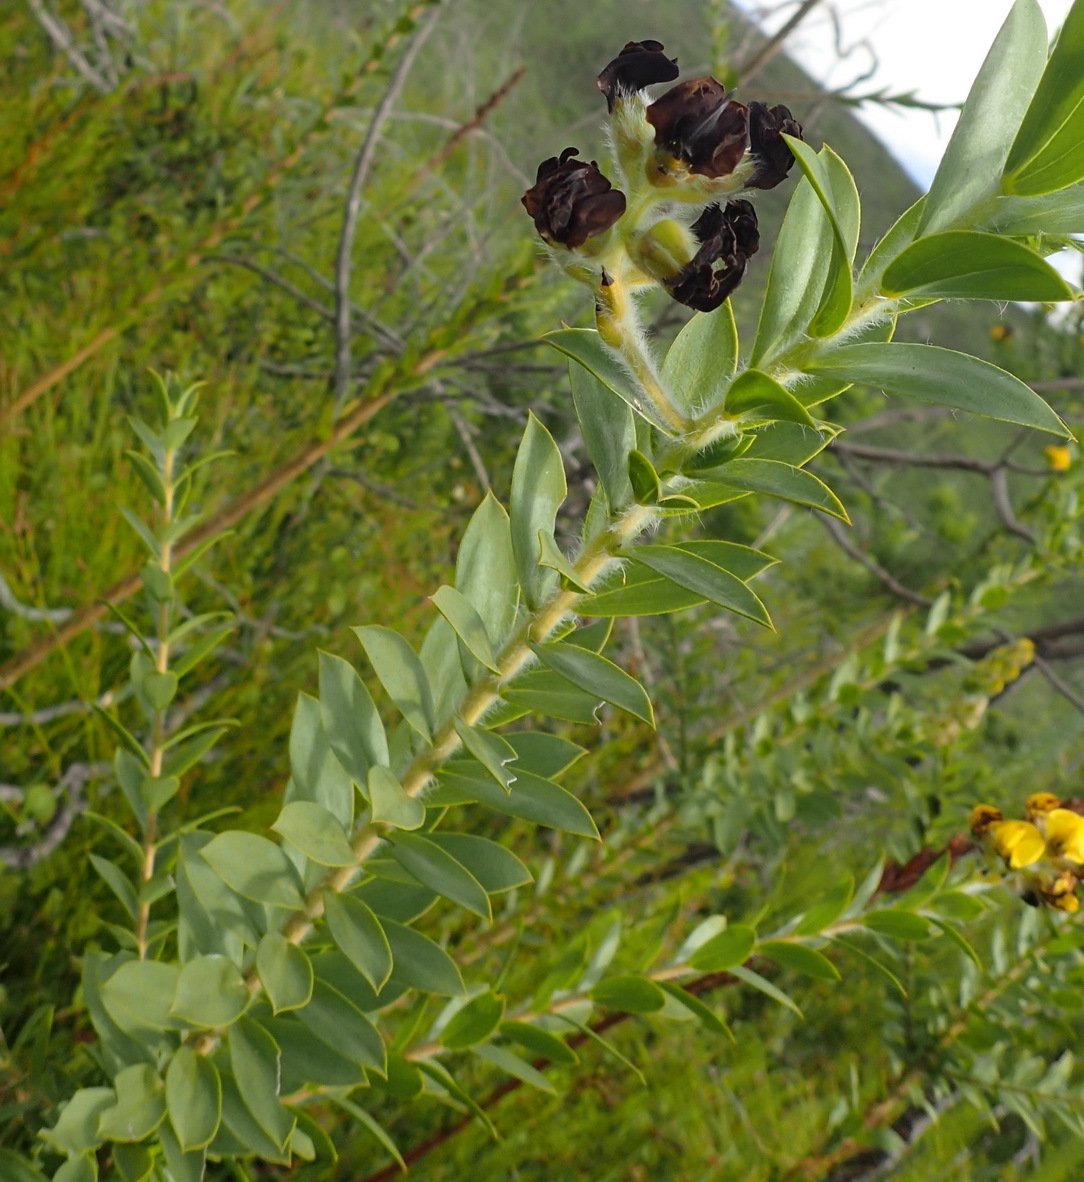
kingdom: Plantae
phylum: Tracheophyta
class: Magnoliopsida
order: Fabales
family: Fabaceae
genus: Liparia
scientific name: Liparia hirsuta
